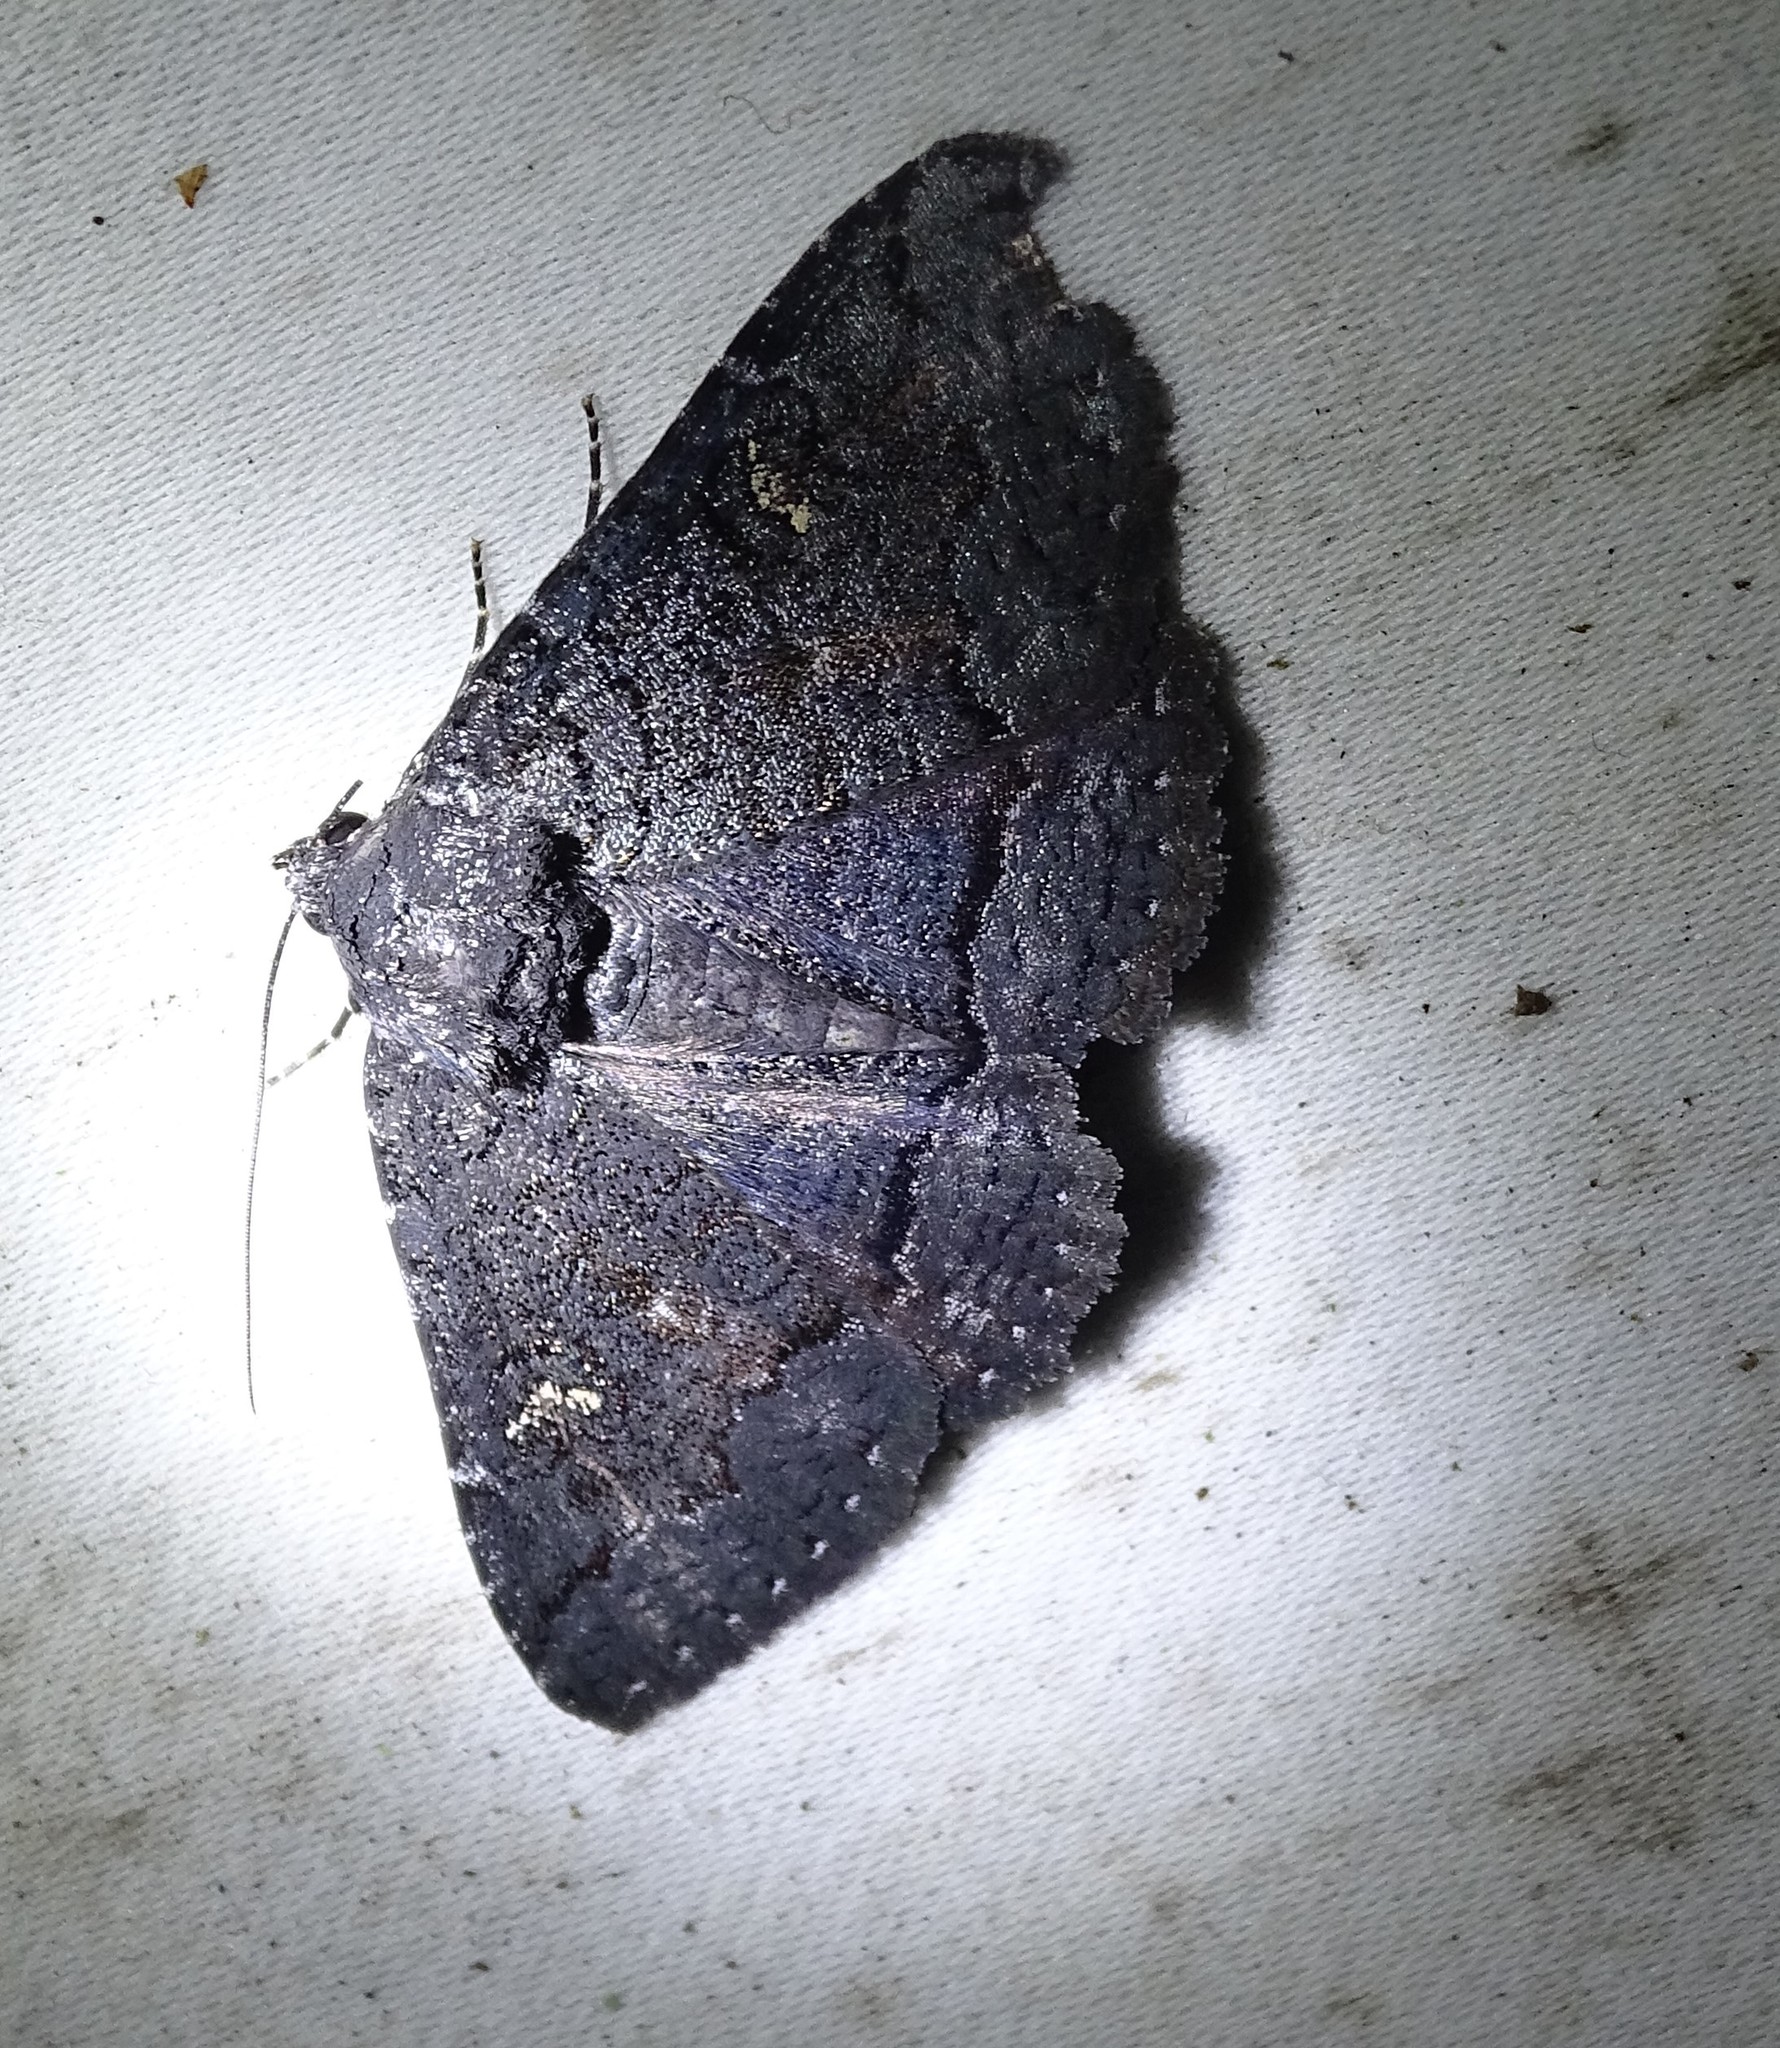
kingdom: Animalia
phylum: Arthropoda
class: Insecta
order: Lepidoptera
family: Erebidae
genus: Zale
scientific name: Zale coracias
